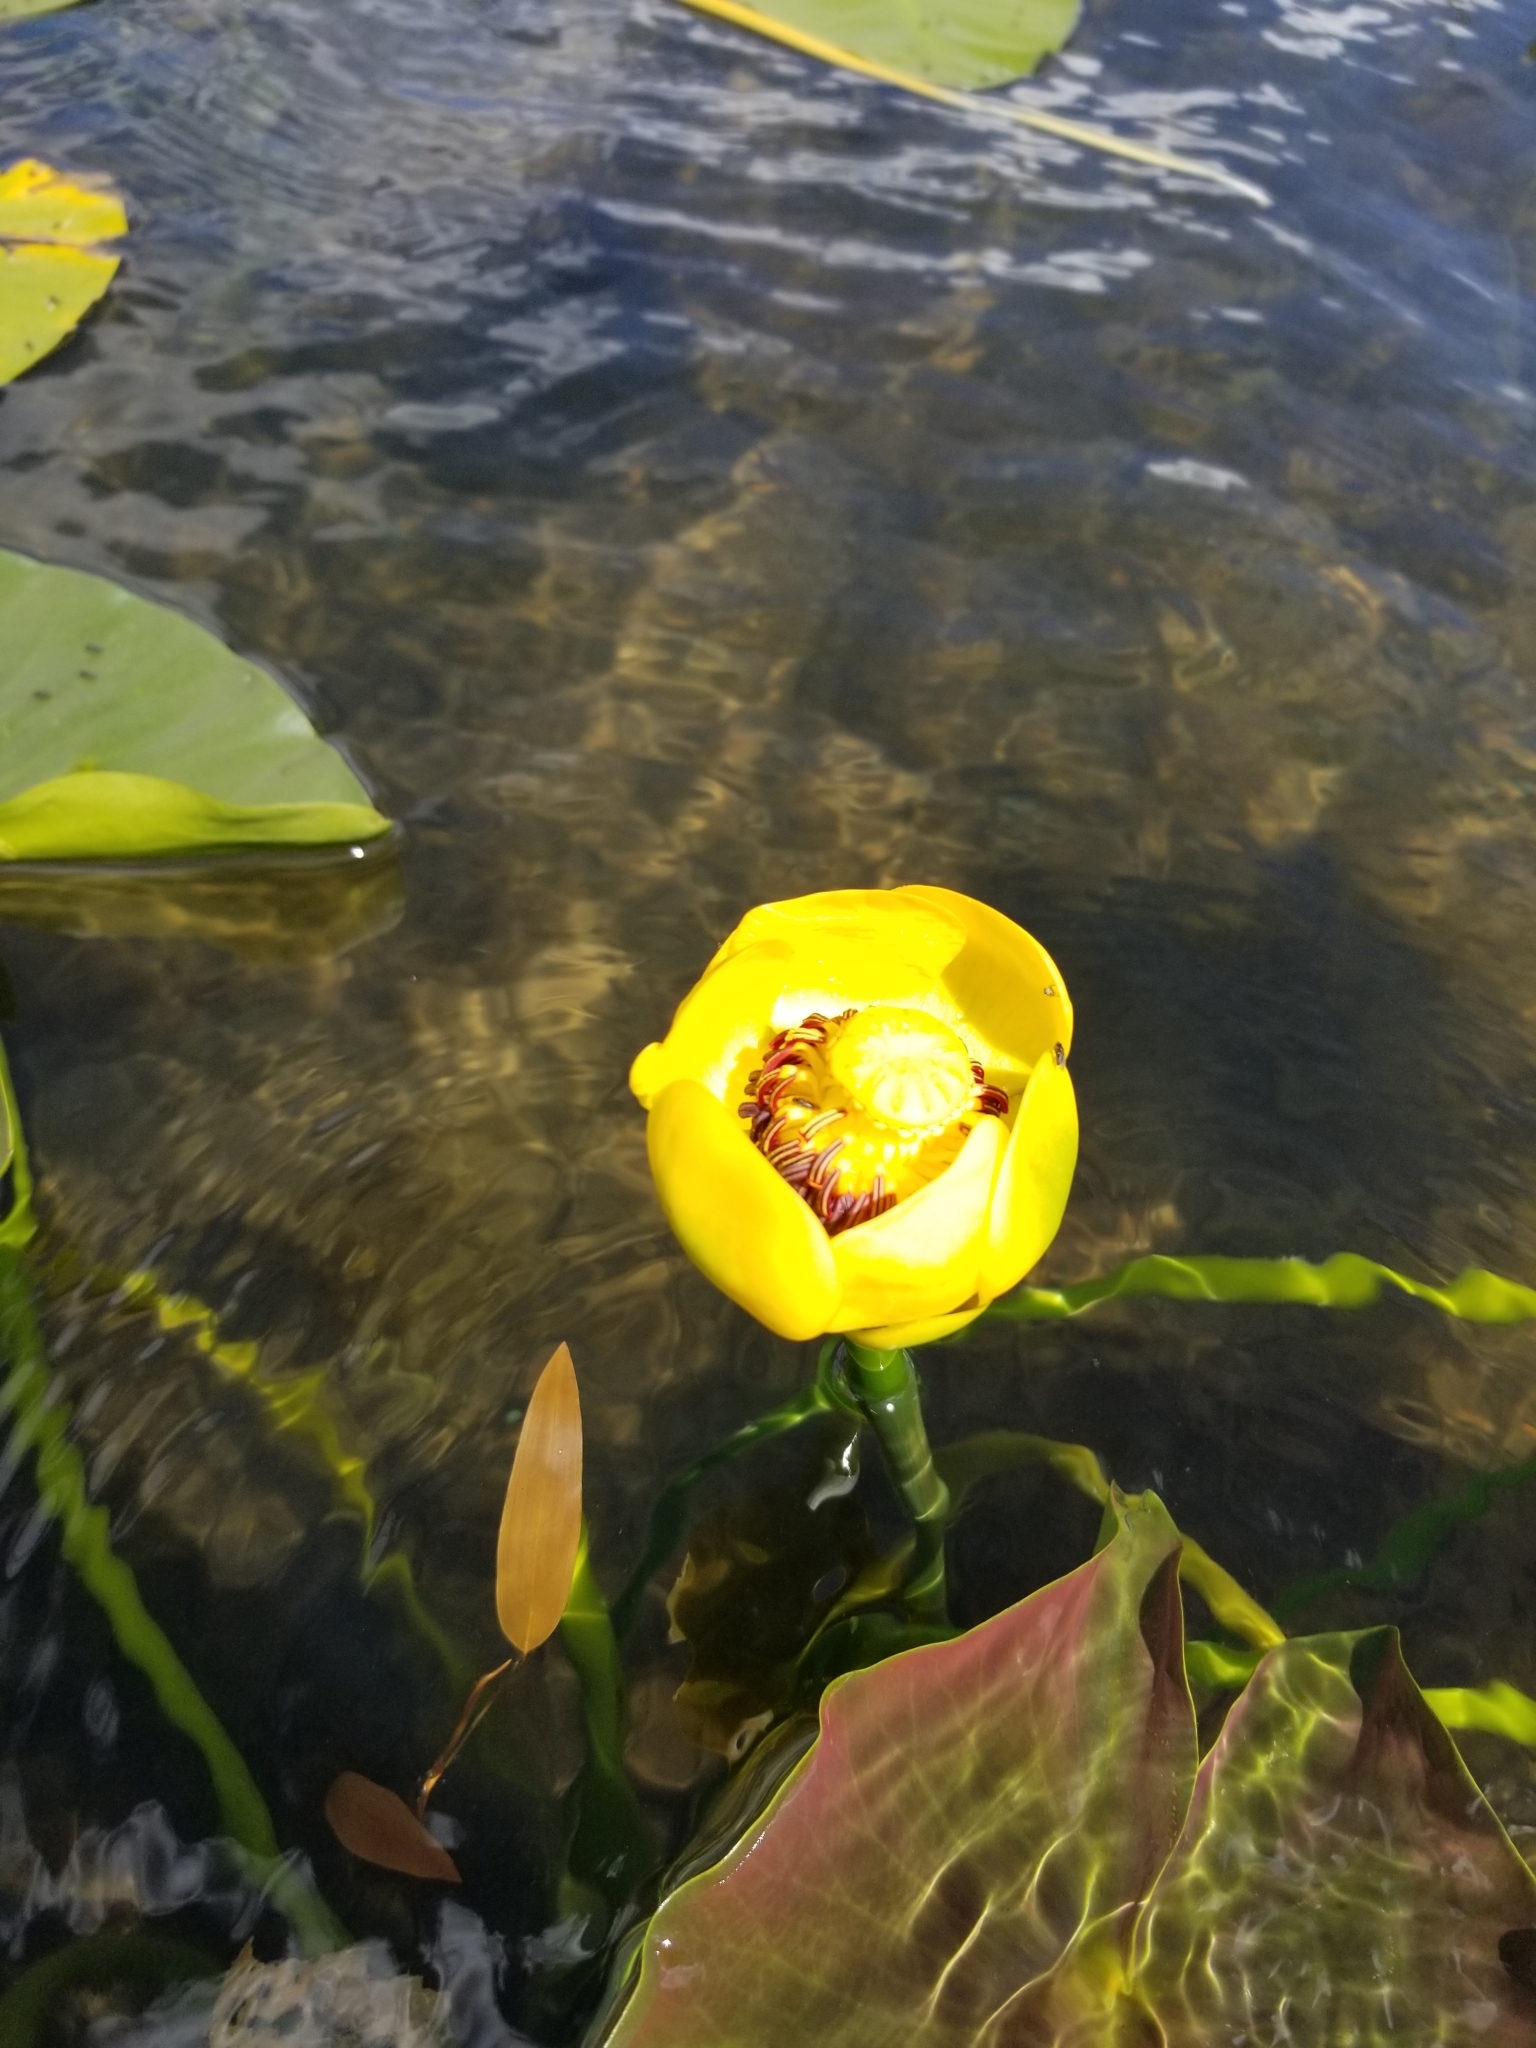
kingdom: Plantae
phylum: Tracheophyta
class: Magnoliopsida
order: Nymphaeales
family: Nymphaeaceae
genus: Nuphar
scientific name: Nuphar polysepala
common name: Rocky mountain cow-lily
